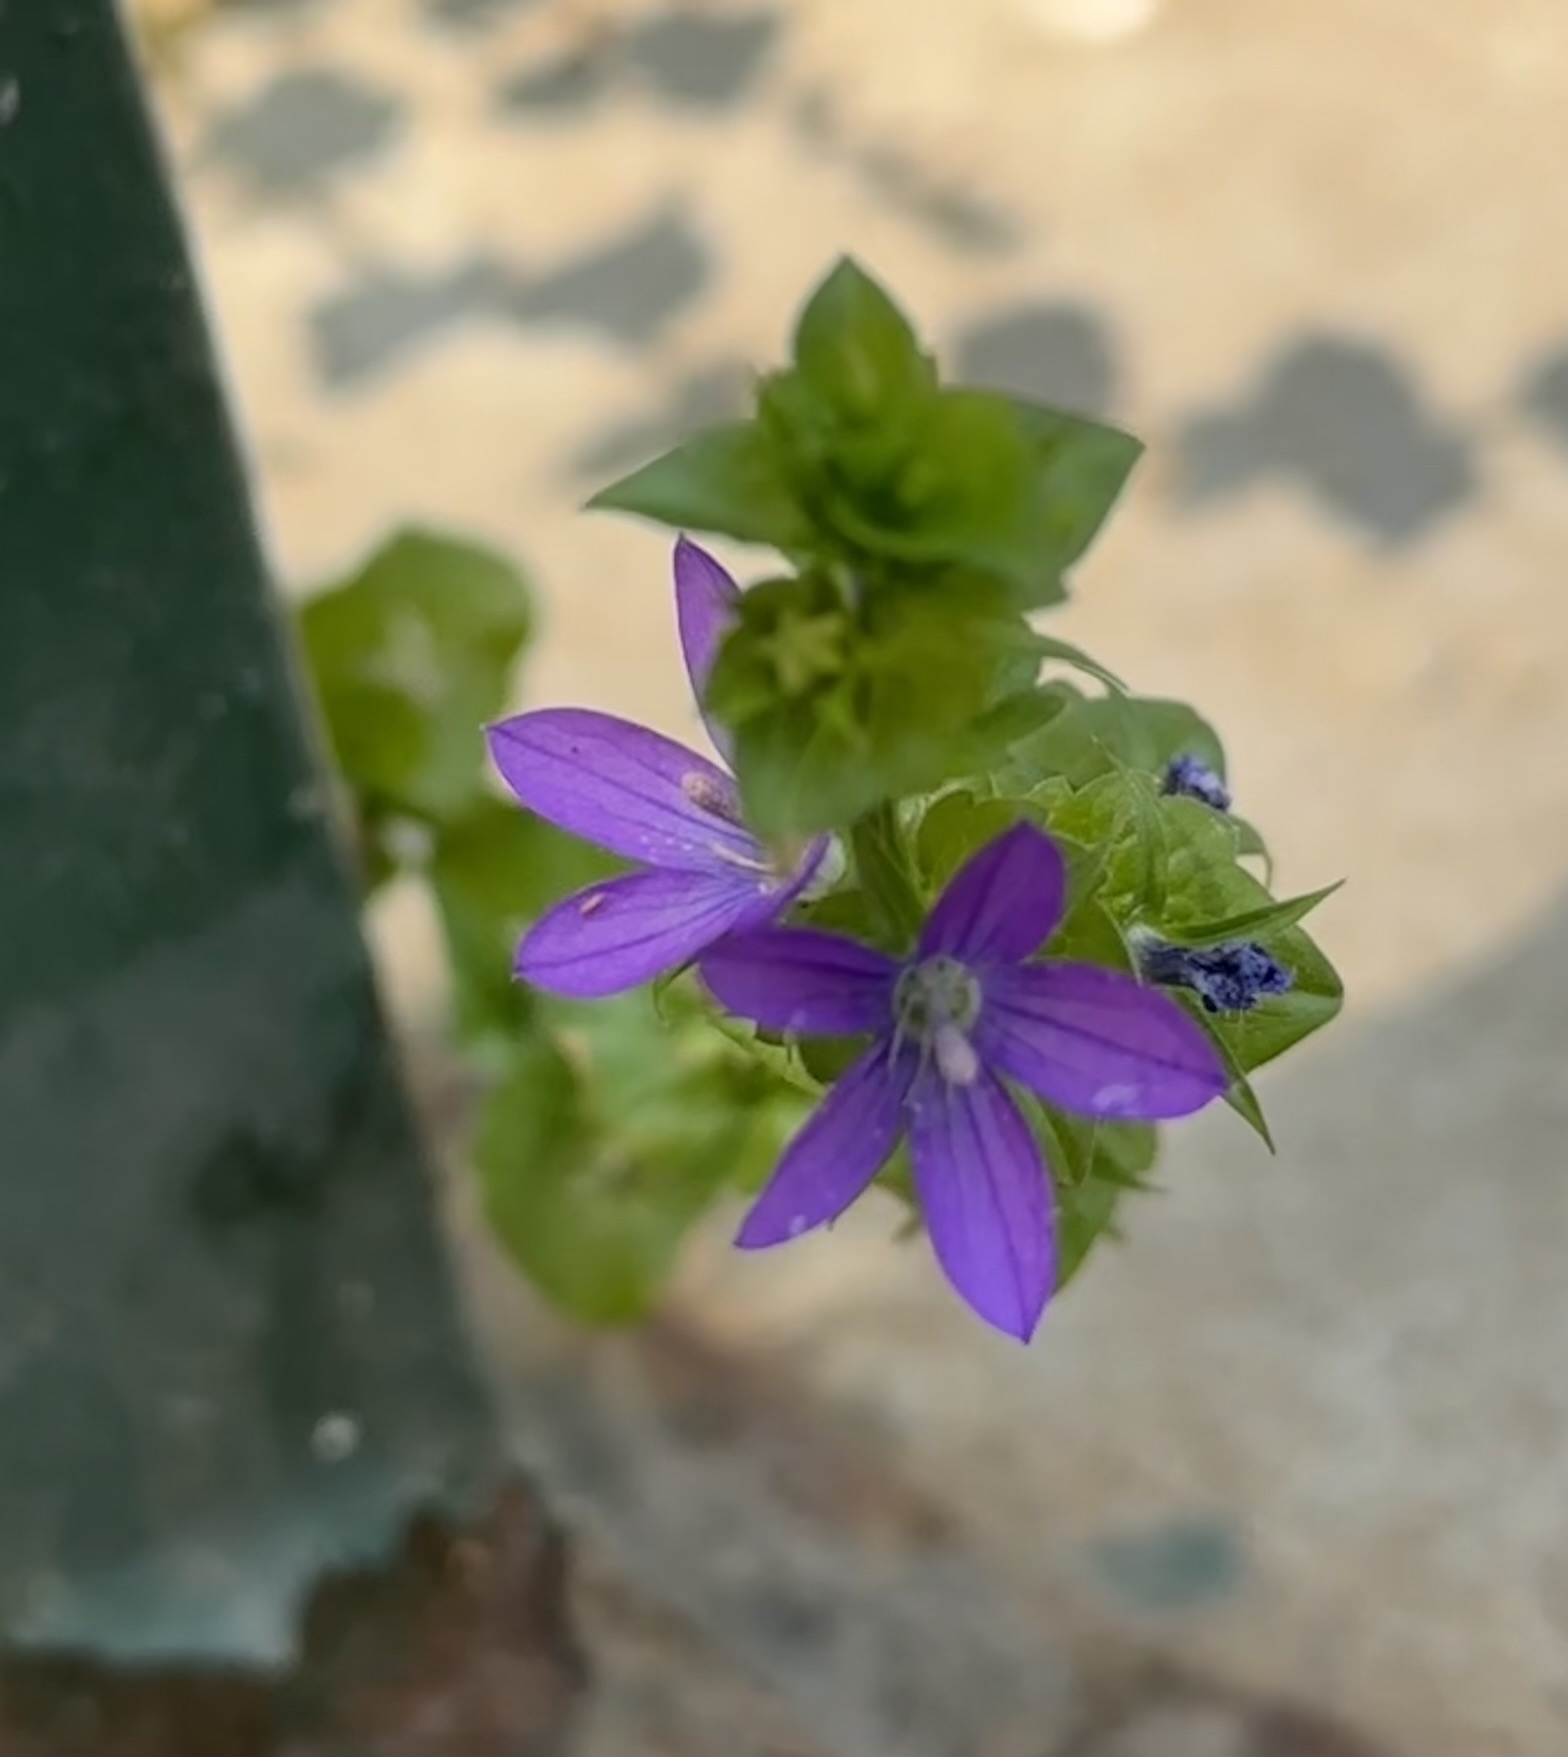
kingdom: Plantae
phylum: Tracheophyta
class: Magnoliopsida
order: Asterales
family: Campanulaceae
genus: Triodanis
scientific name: Triodanis perfoliata
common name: Clasping venus' looking-glass
